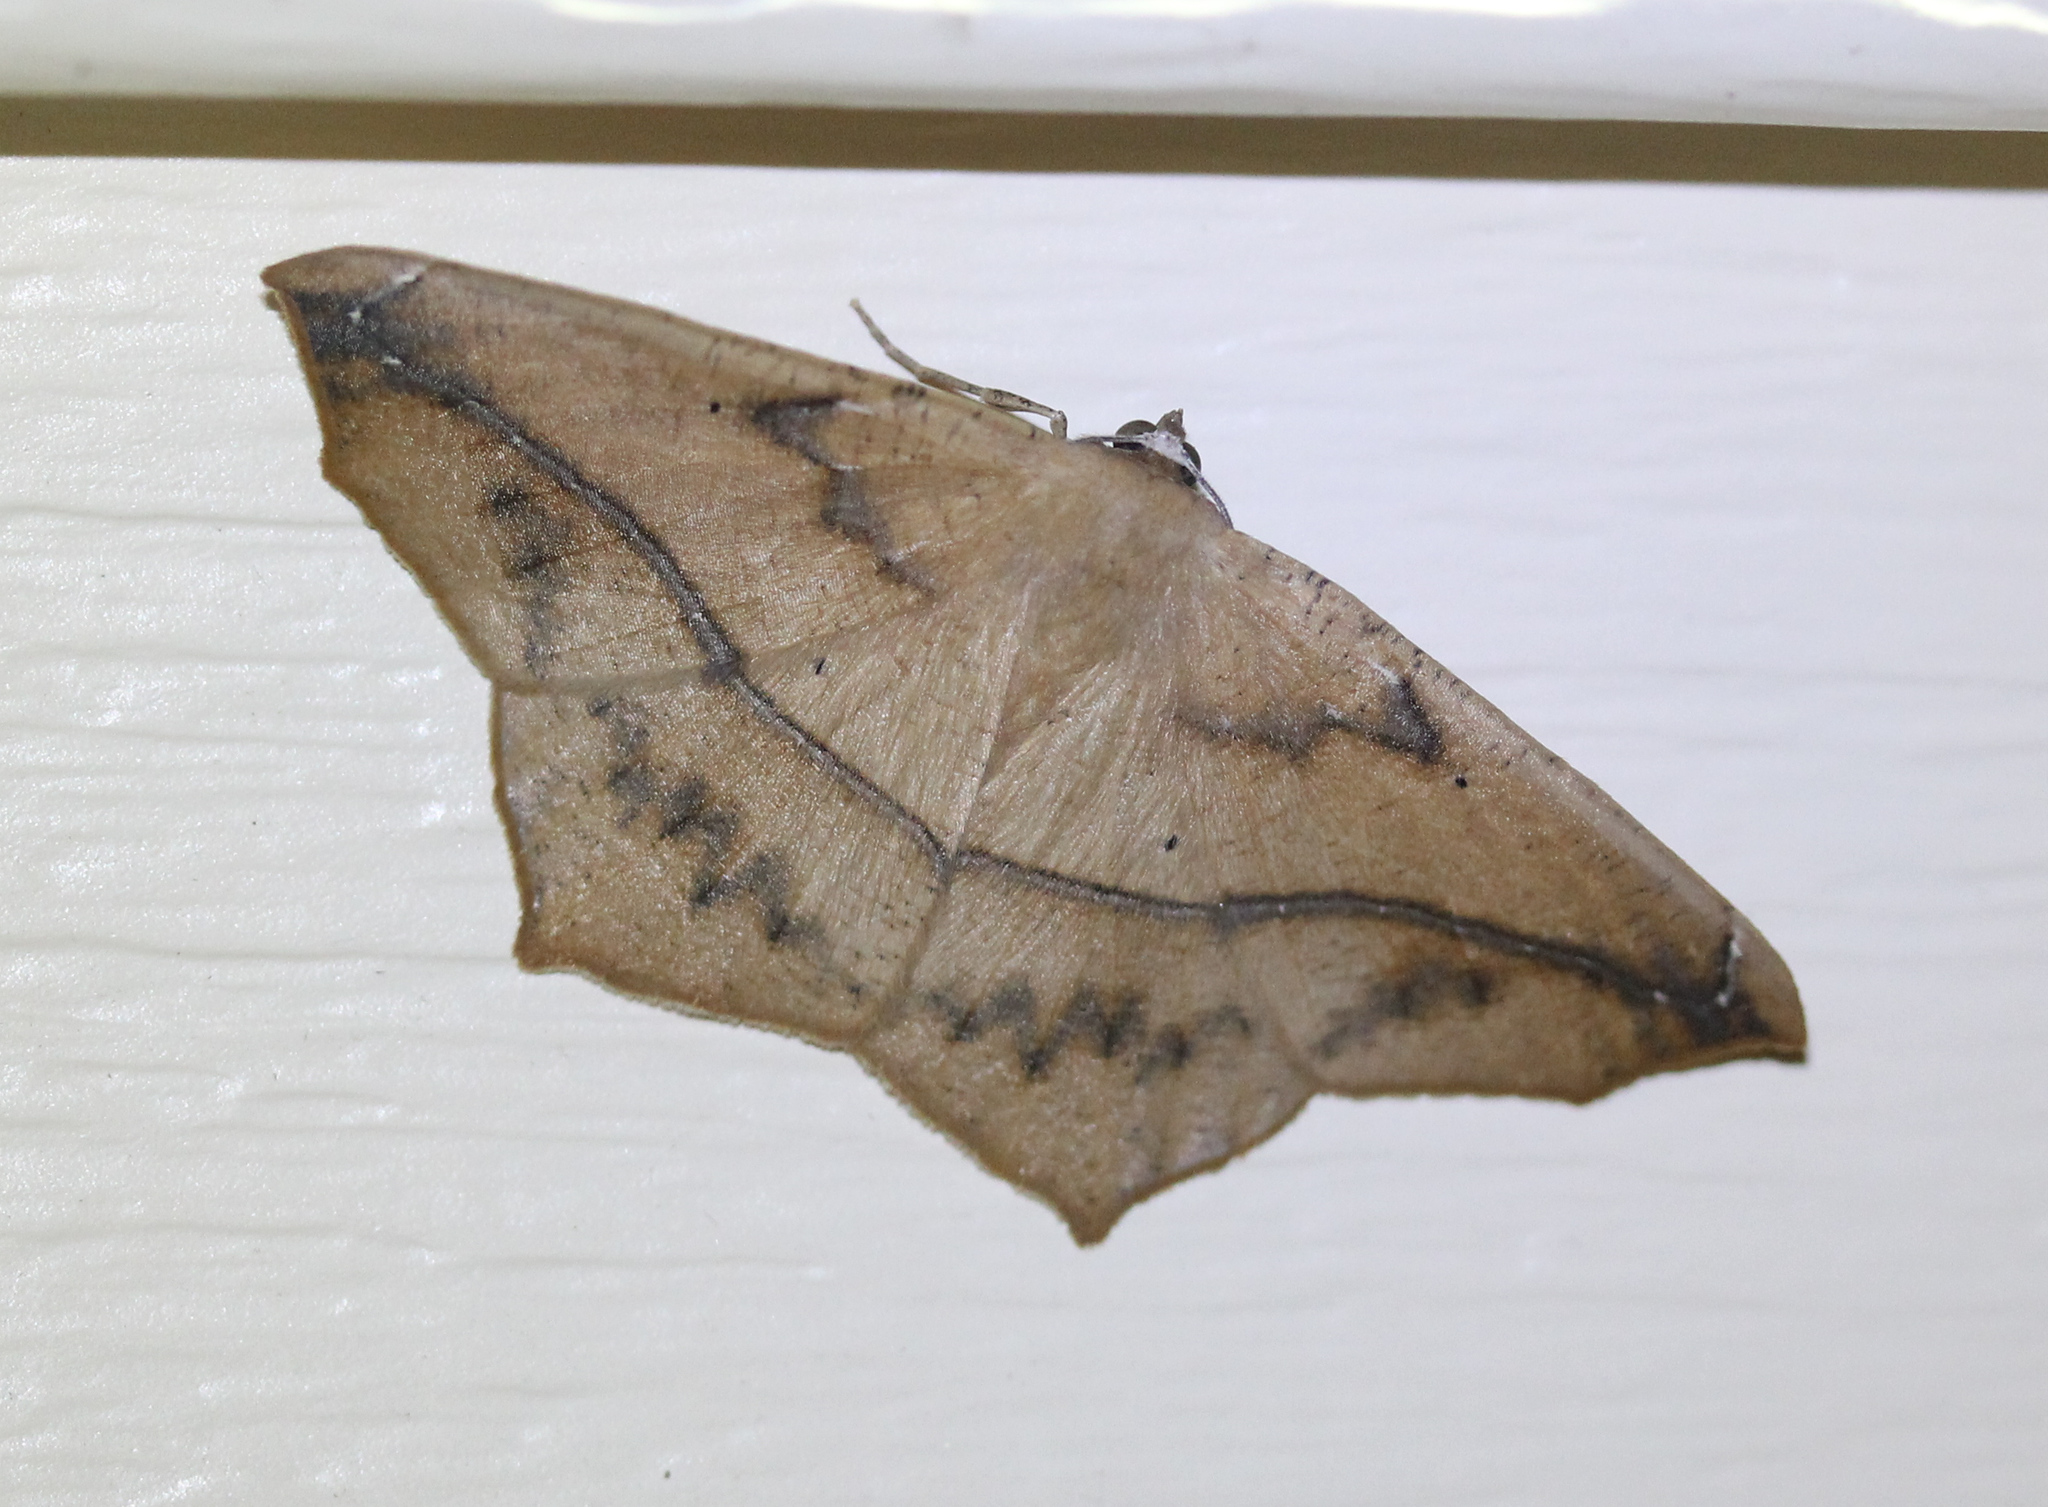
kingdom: Animalia
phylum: Arthropoda
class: Insecta
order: Lepidoptera
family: Geometridae
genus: Prochoerodes
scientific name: Prochoerodes lineola
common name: Large maple spanworm
